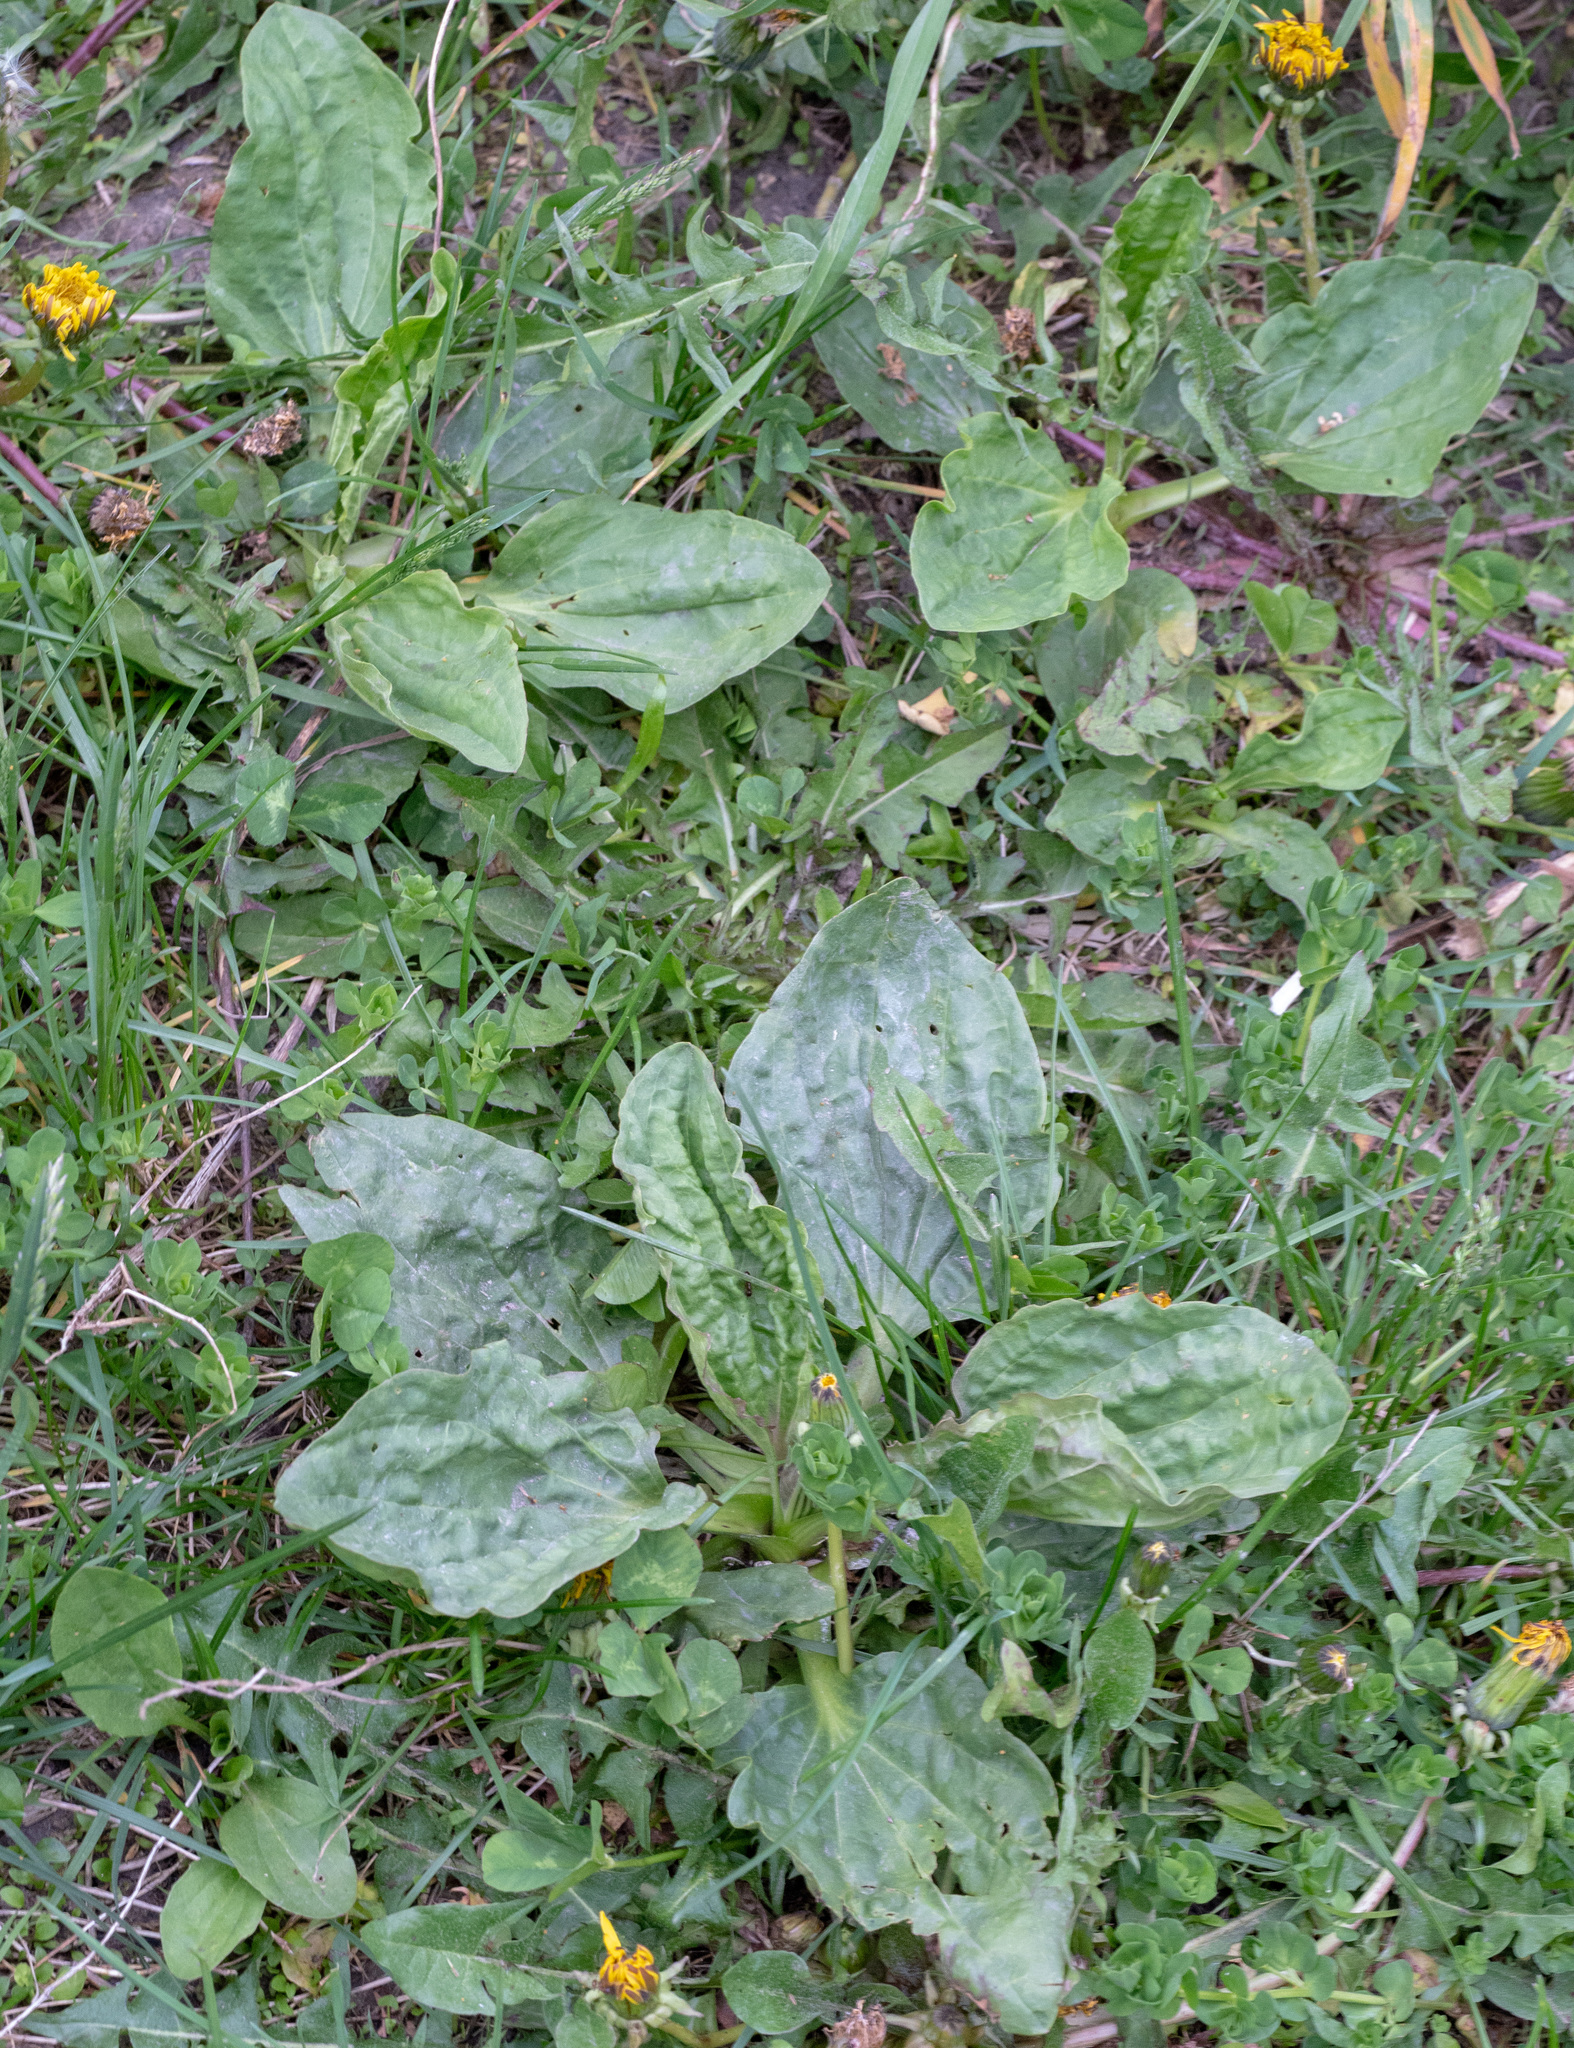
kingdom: Plantae
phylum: Tracheophyta
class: Magnoliopsida
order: Lamiales
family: Plantaginaceae
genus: Plantago
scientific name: Plantago major
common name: Common plantain
